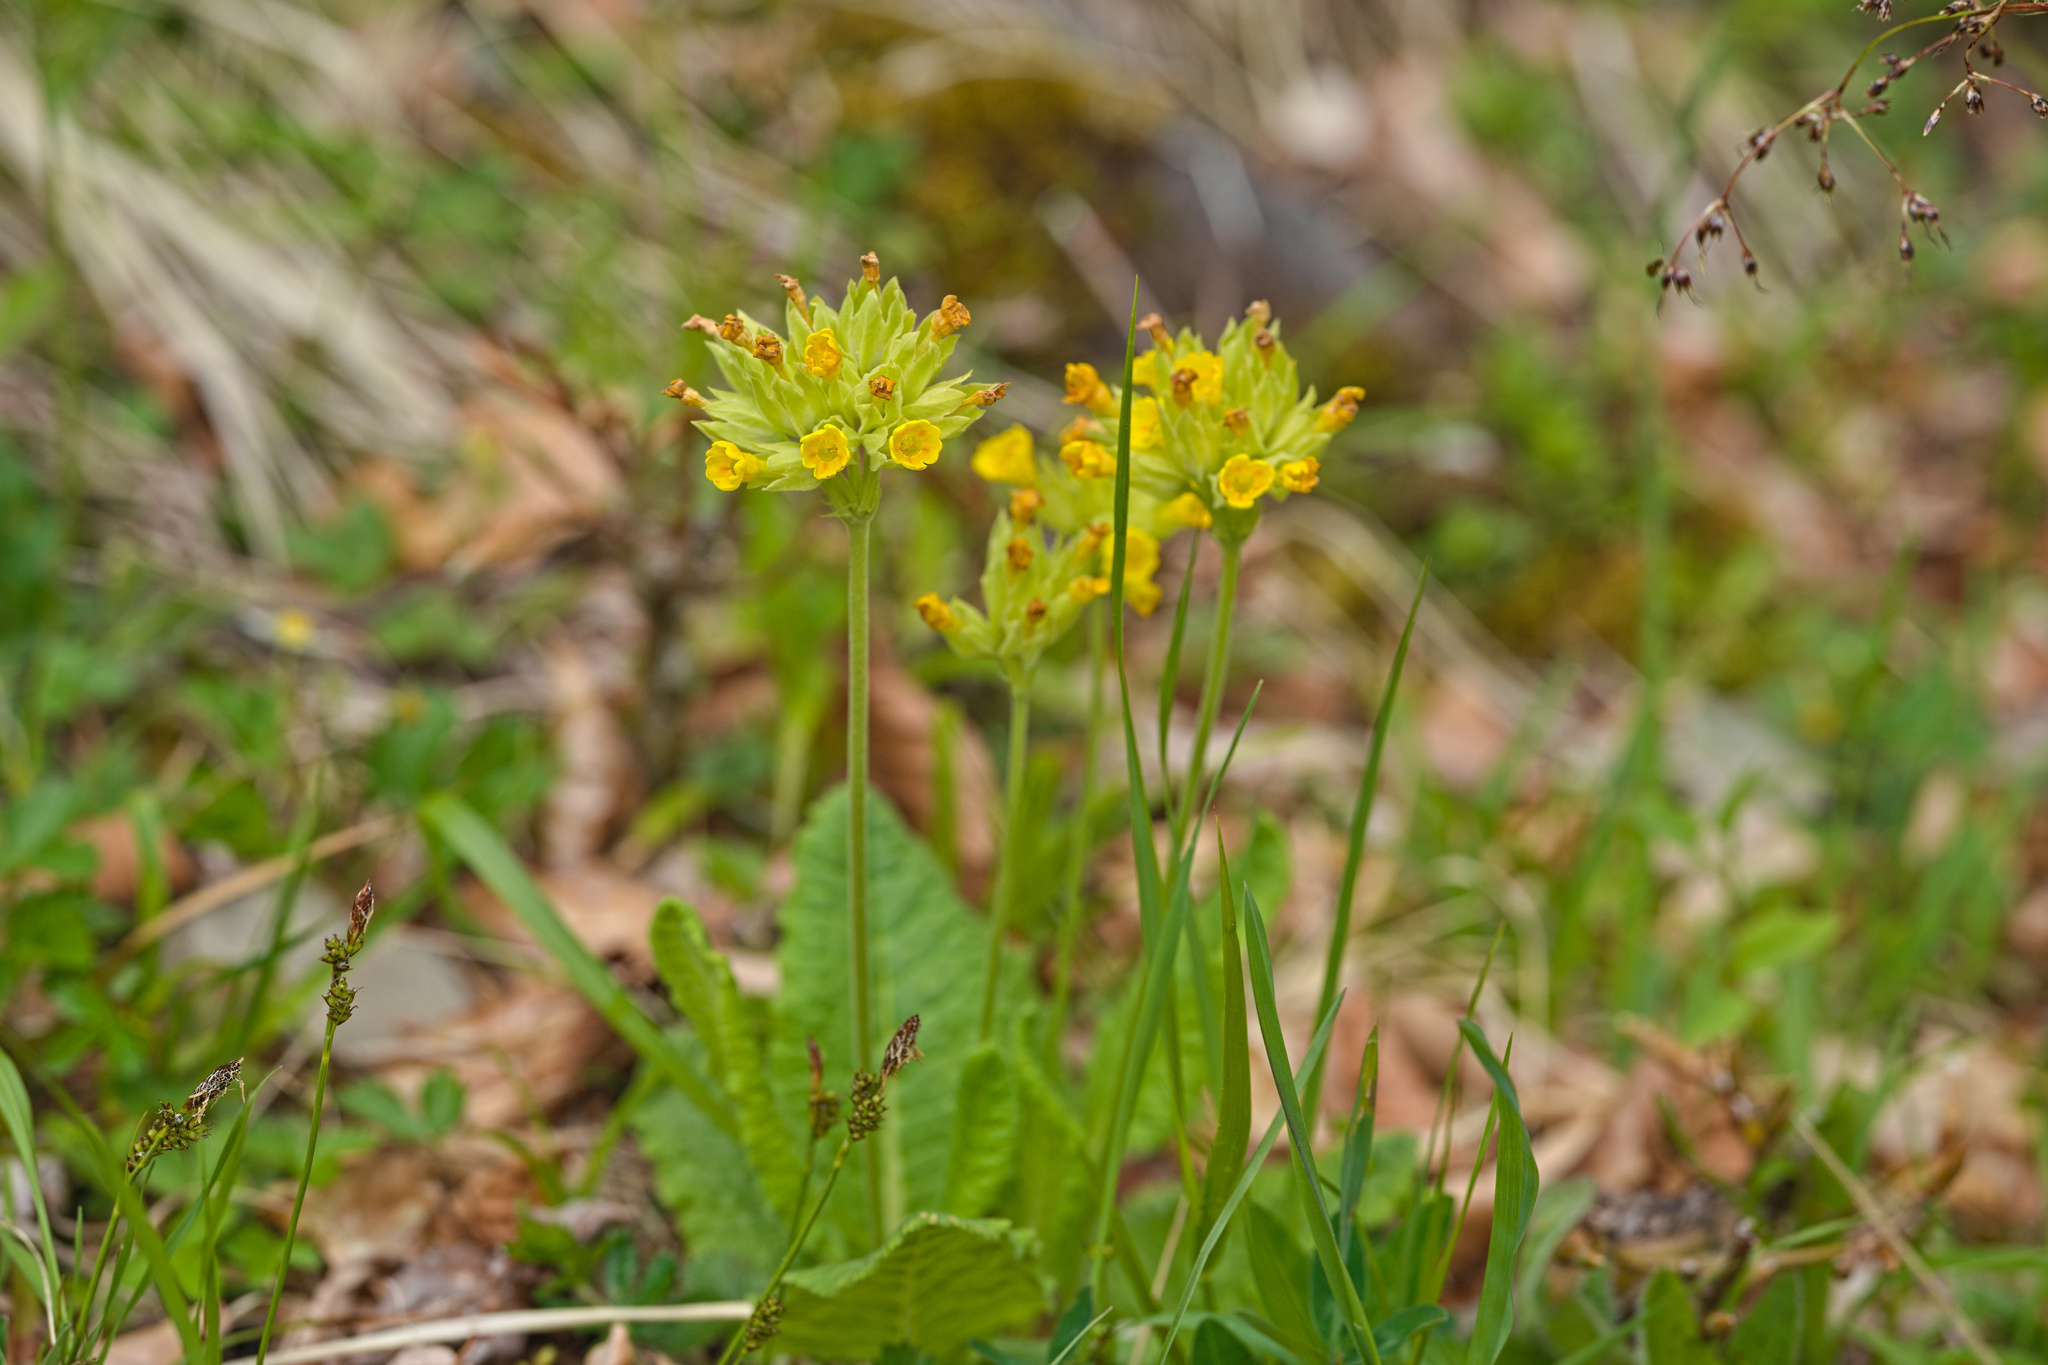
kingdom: Plantae
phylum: Tracheophyta
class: Magnoliopsida
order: Ericales
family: Primulaceae
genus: Primula
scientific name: Primula veris
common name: Cowslip
